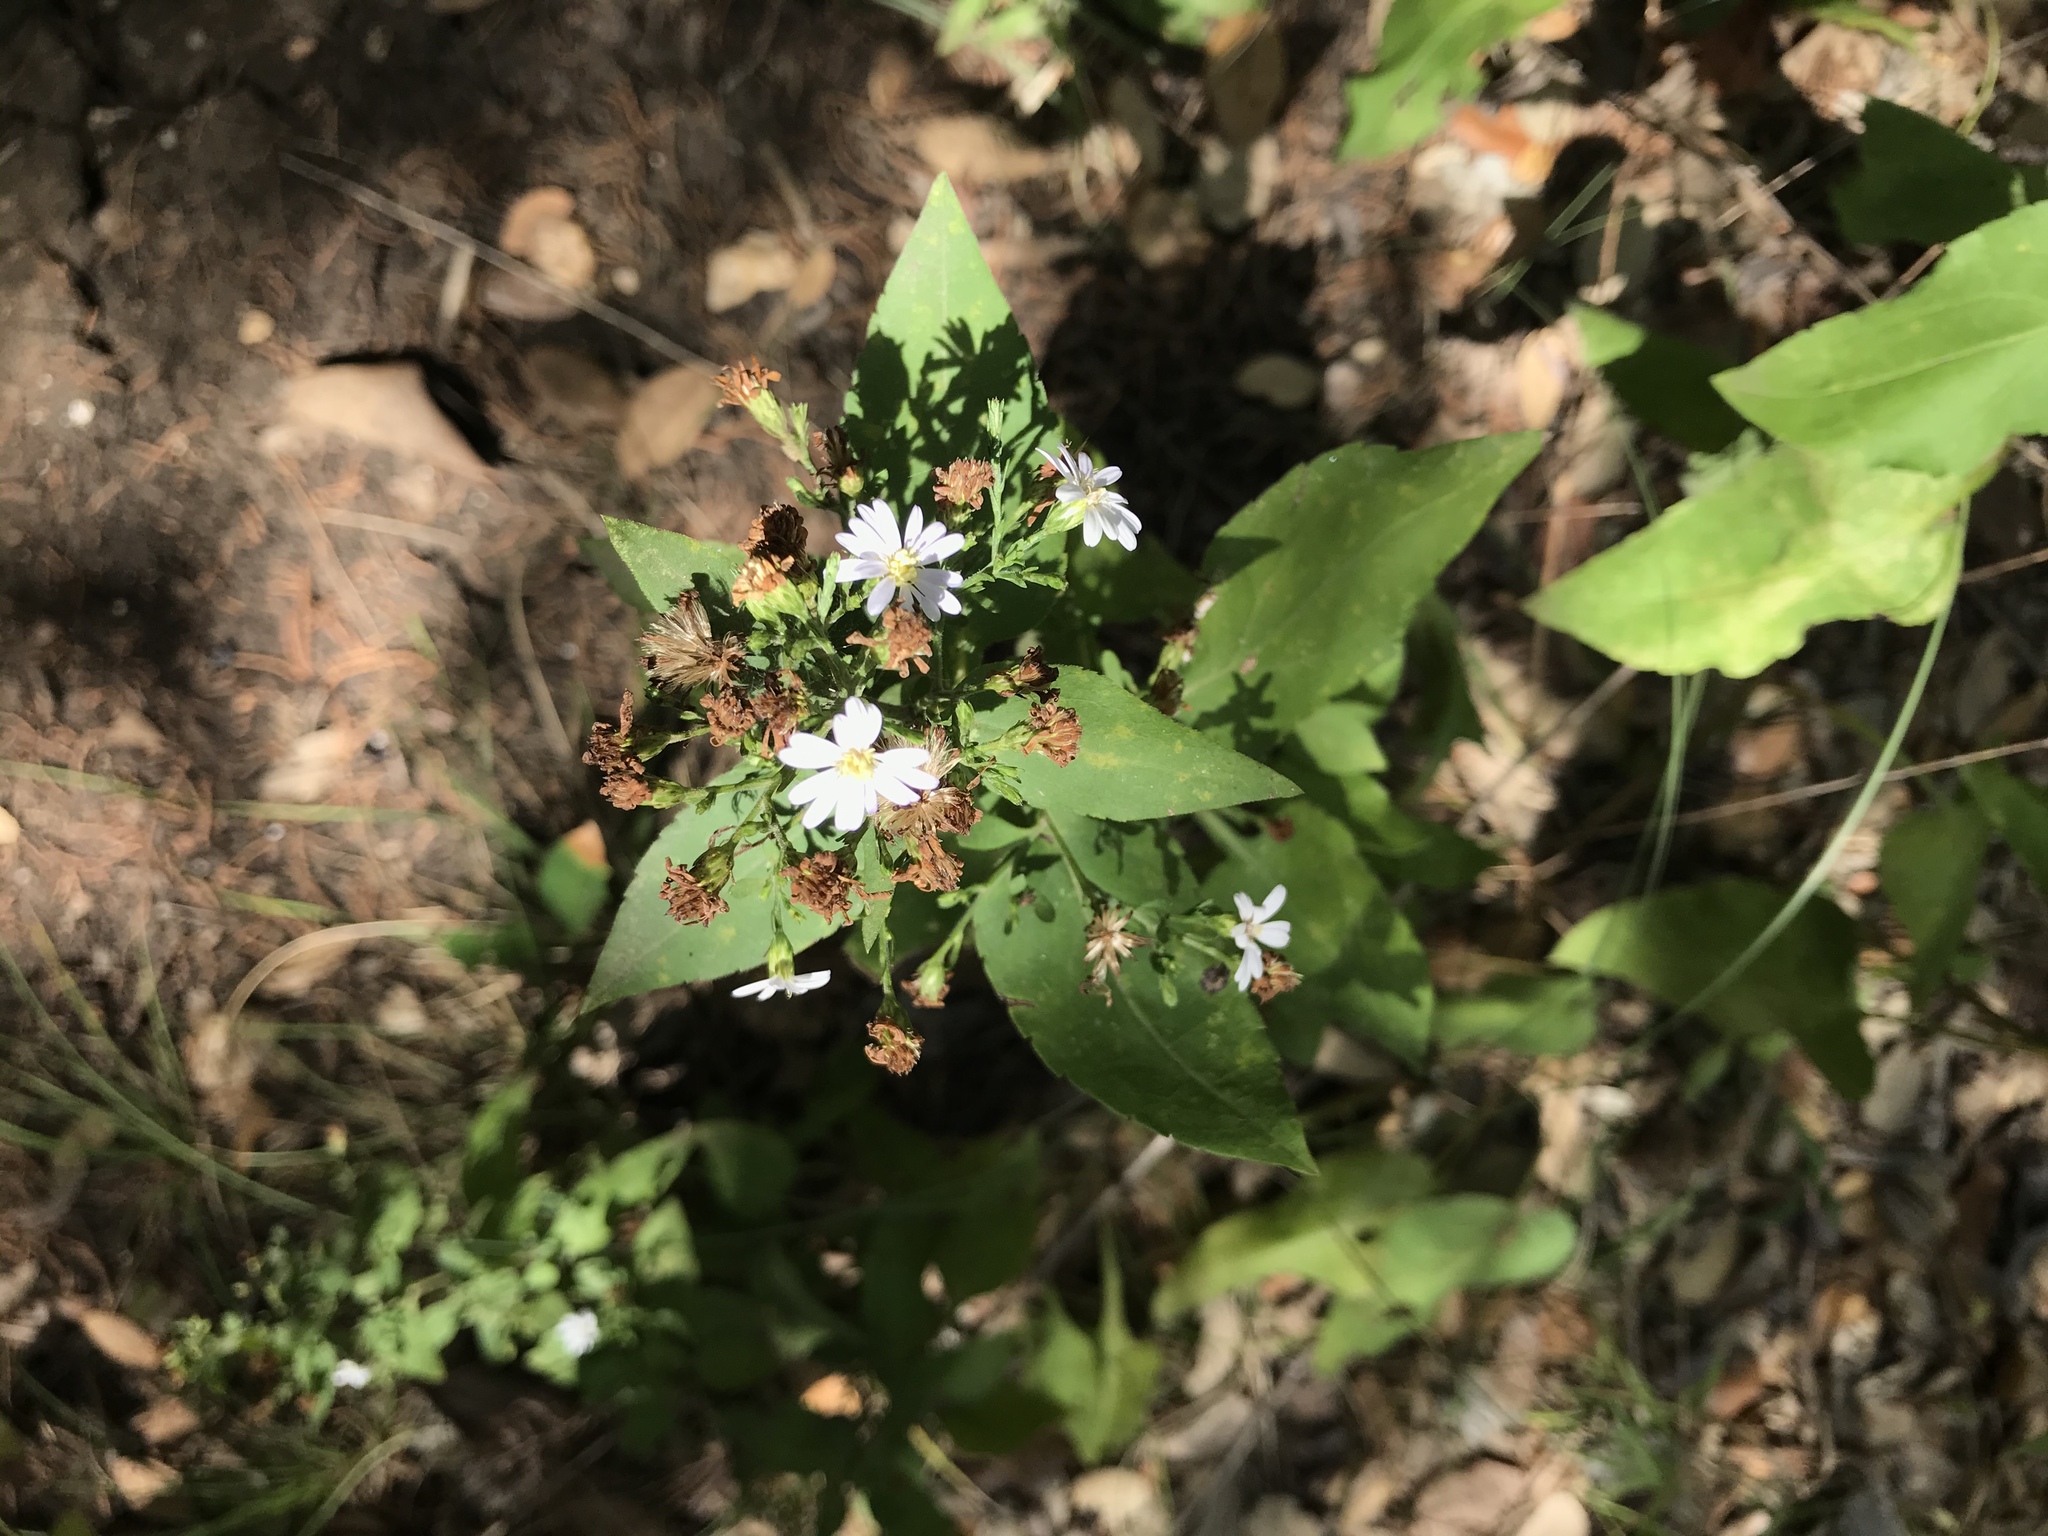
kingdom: Plantae
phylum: Tracheophyta
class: Magnoliopsida
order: Asterales
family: Asteraceae
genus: Symphyotrichum
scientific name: Symphyotrichum drummondii
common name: Drummond's aster
